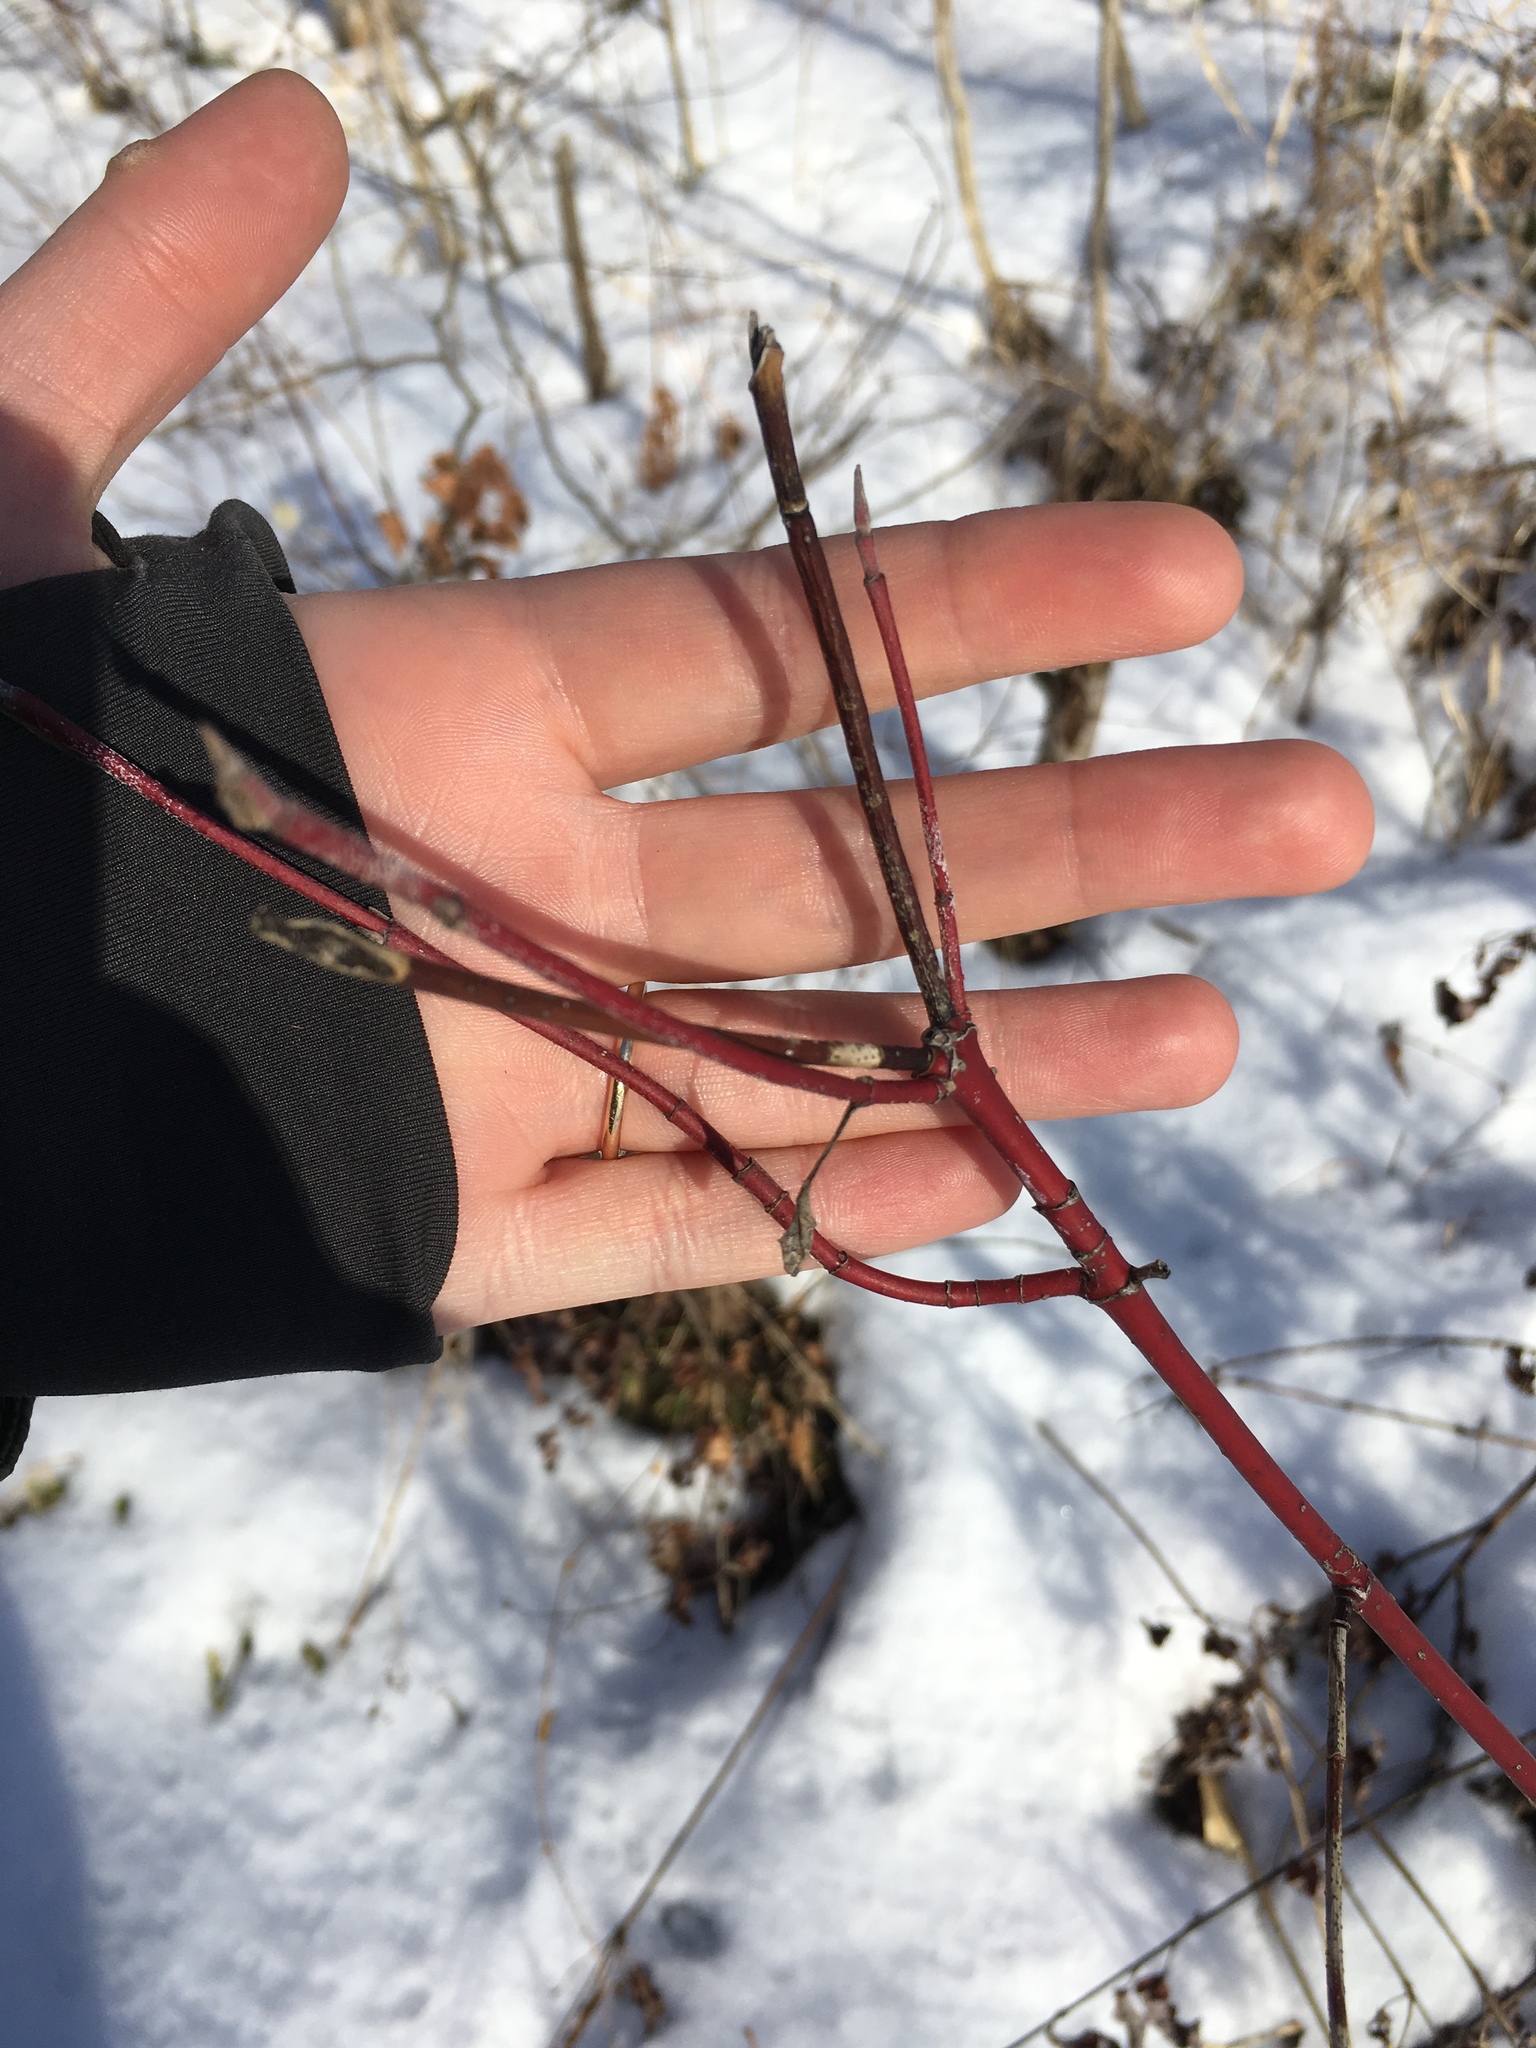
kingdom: Plantae
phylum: Tracheophyta
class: Magnoliopsida
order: Cornales
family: Cornaceae
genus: Cornus
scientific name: Cornus sericea
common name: Red-osier dogwood
